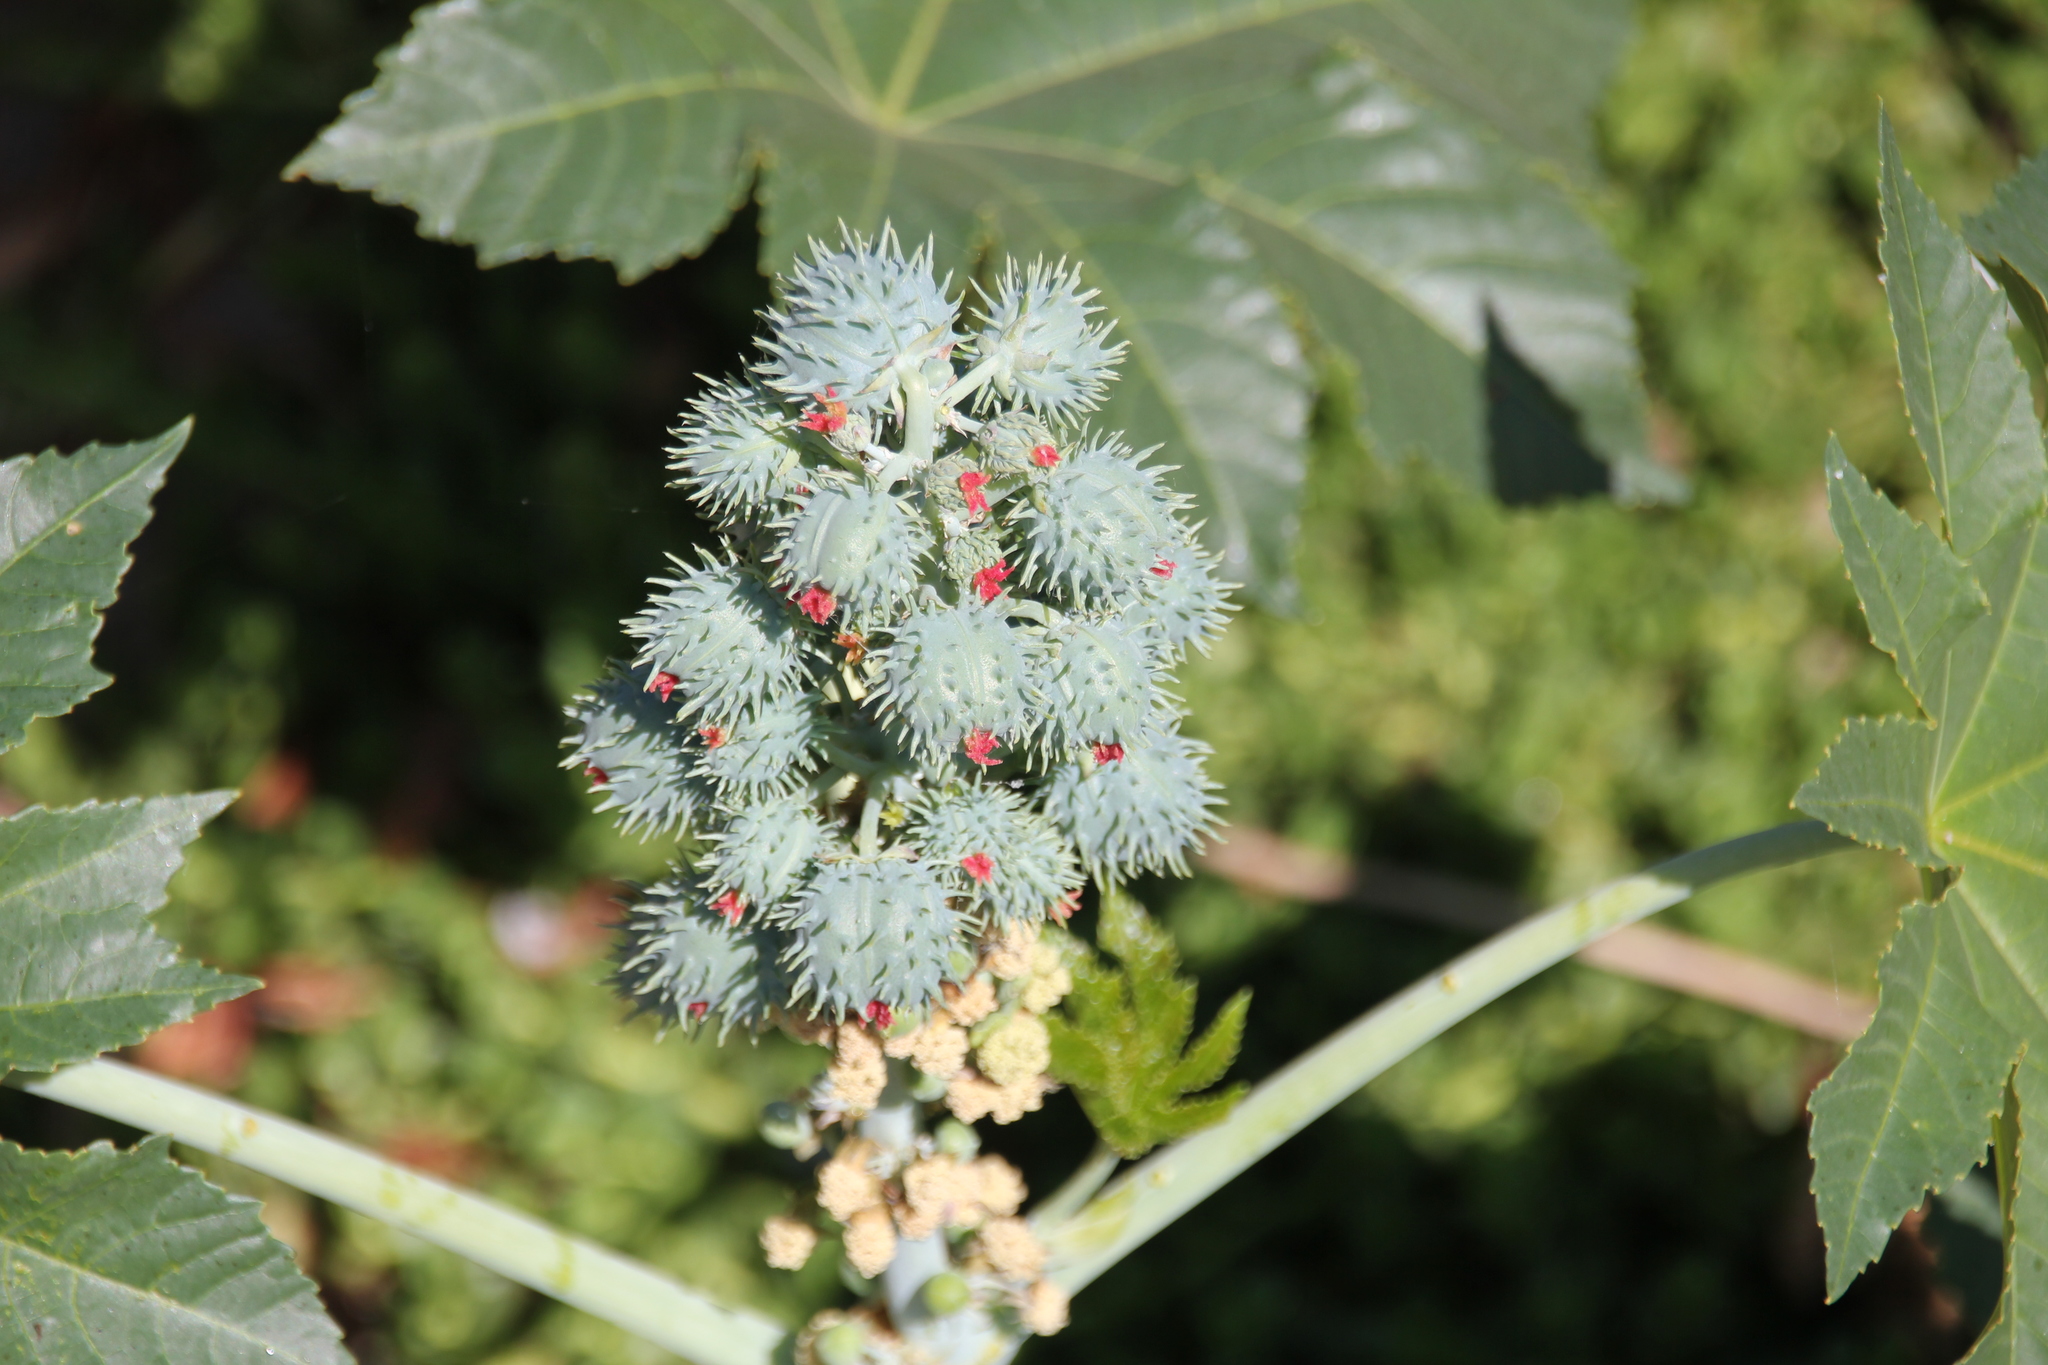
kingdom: Plantae
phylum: Tracheophyta
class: Magnoliopsida
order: Malpighiales
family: Euphorbiaceae
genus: Ricinus
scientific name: Ricinus communis
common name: Castor-oil-plant
